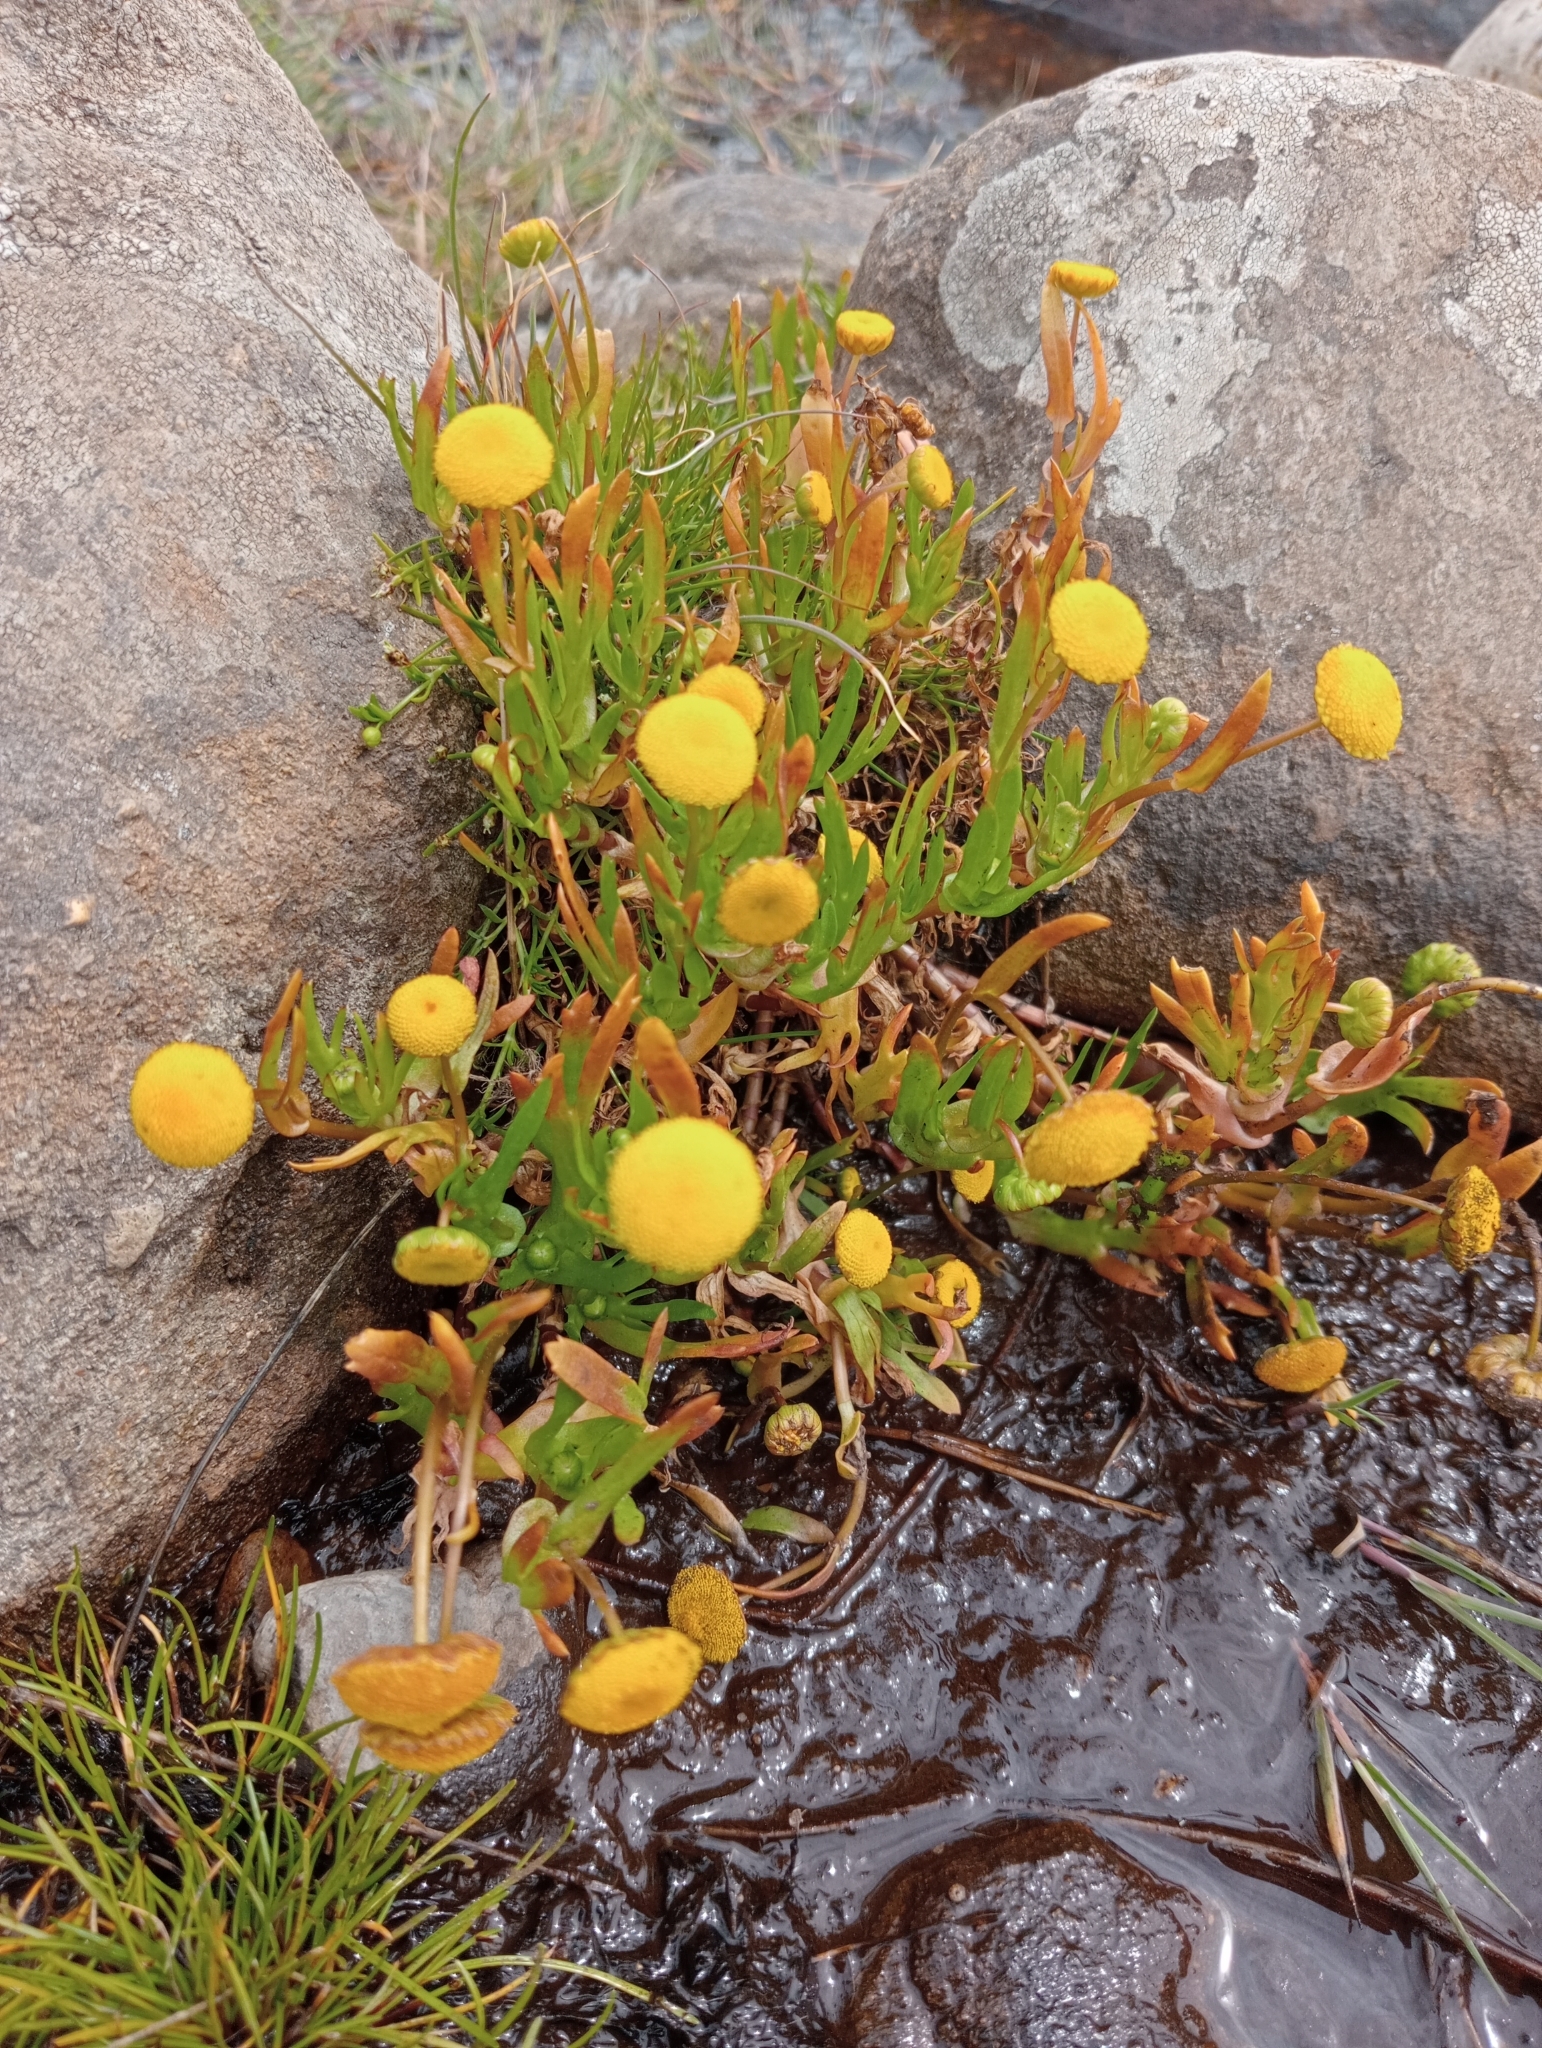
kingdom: Plantae
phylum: Tracheophyta
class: Magnoliopsida
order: Asterales
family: Asteraceae
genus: Cotula
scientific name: Cotula coronopifolia
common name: Buttonweed
